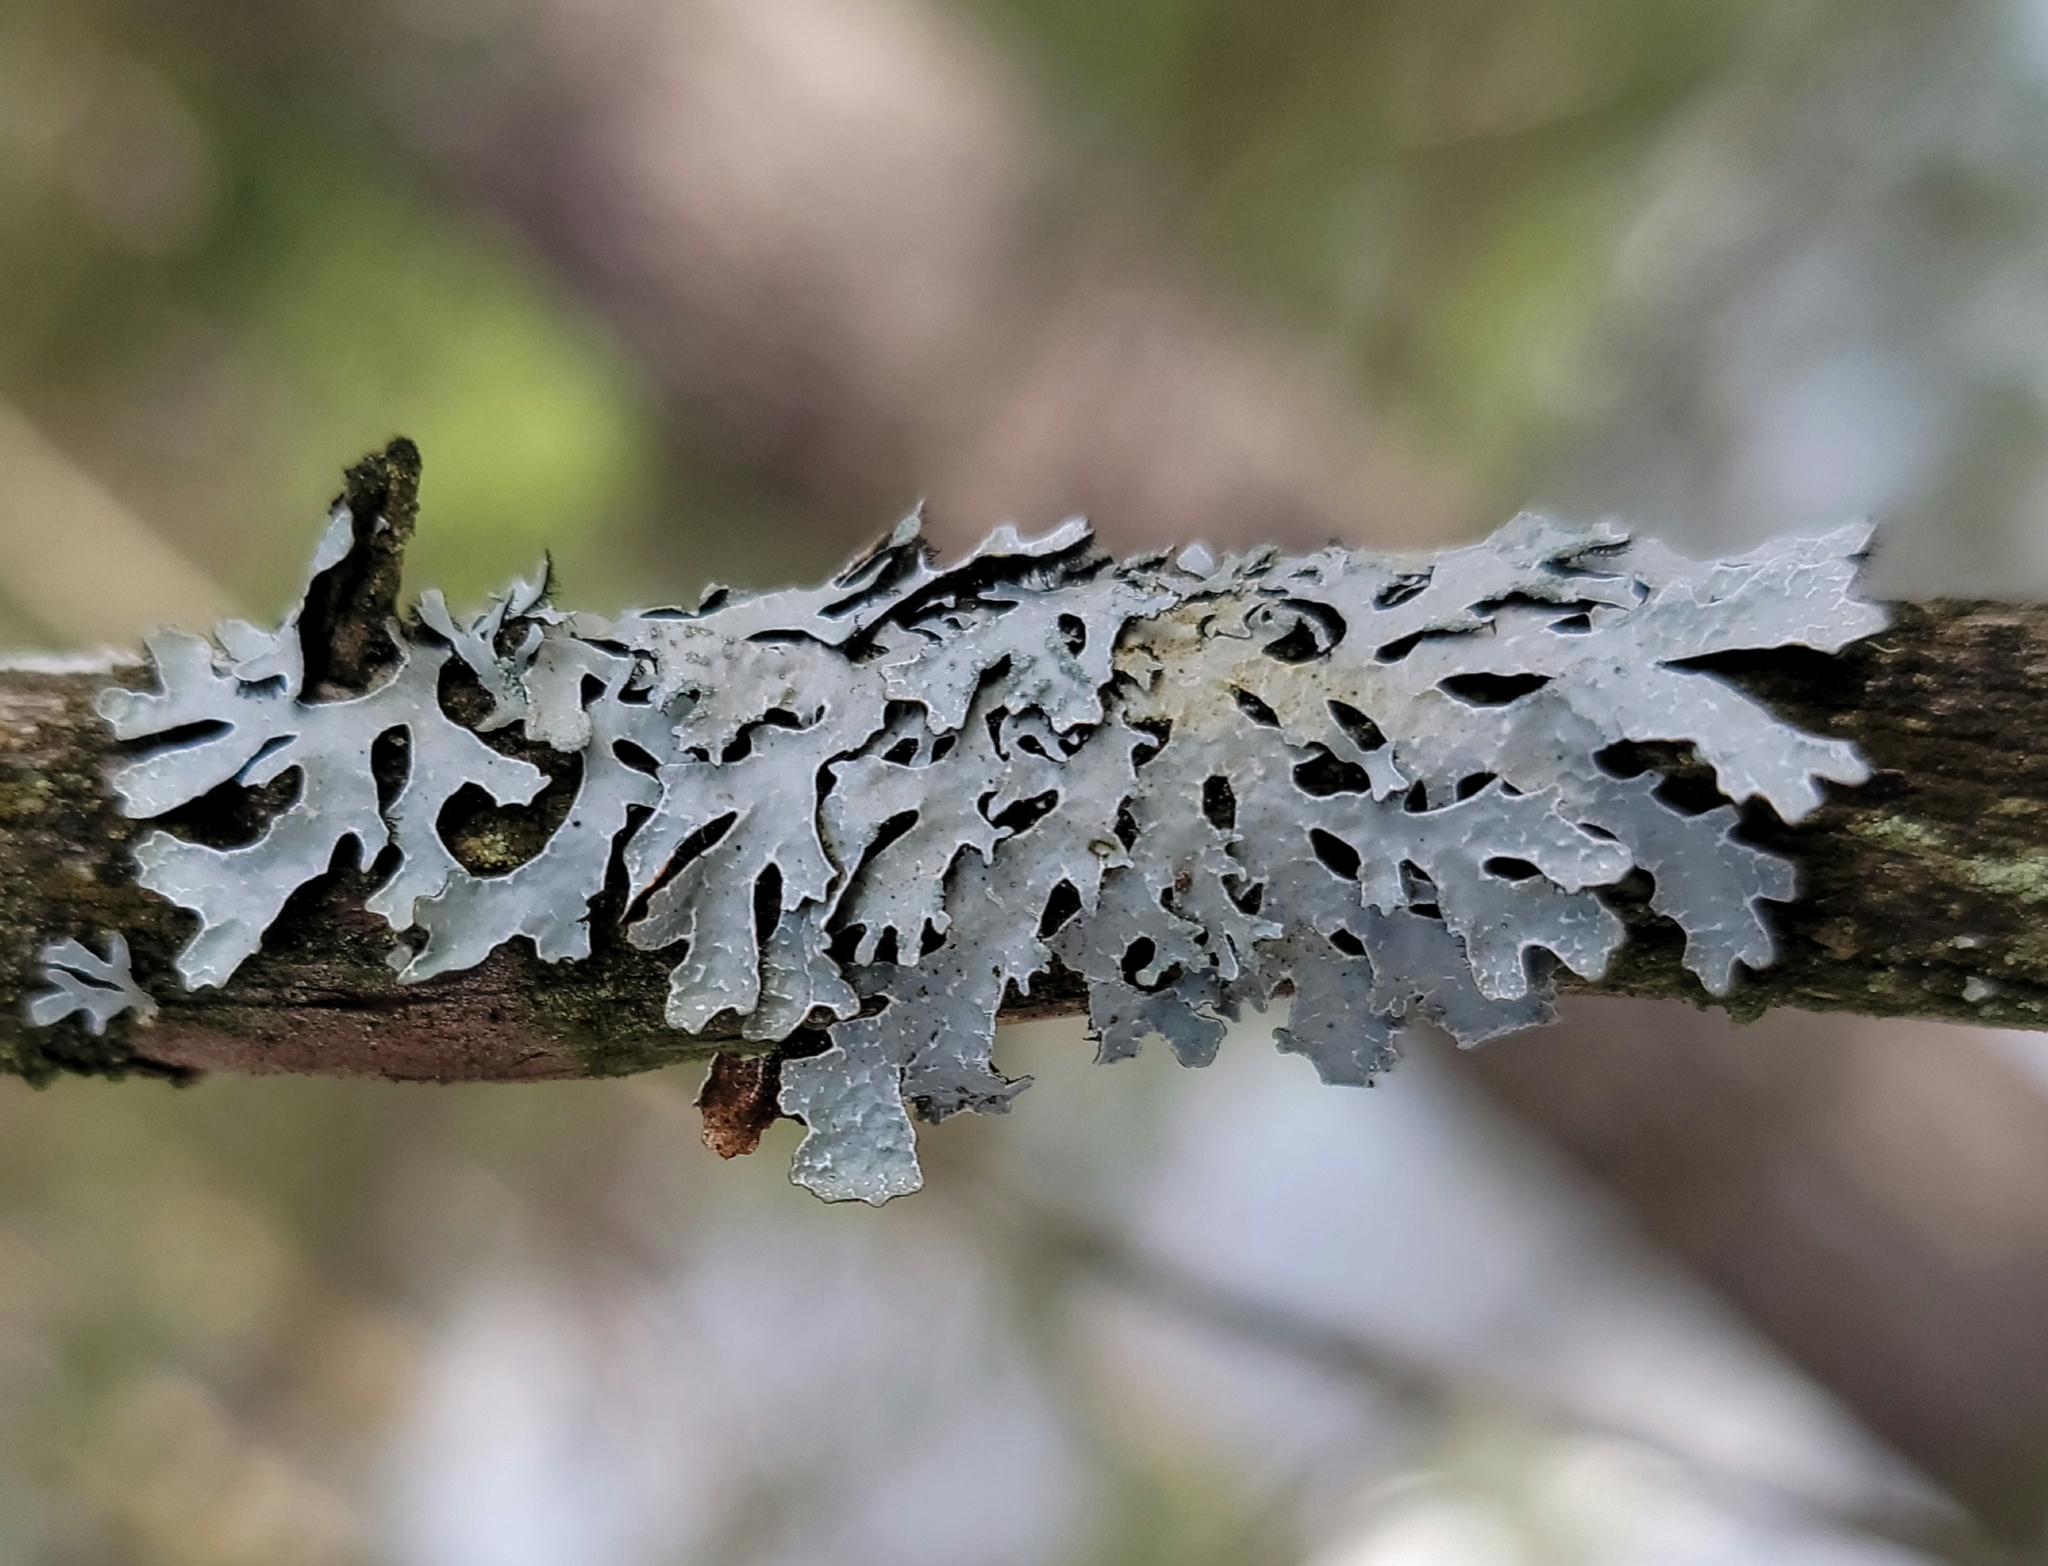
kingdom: Fungi
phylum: Ascomycota
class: Lecanoromycetes
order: Lecanorales
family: Parmeliaceae
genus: Parmelia
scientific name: Parmelia sulcata
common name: Netted shield lichen
